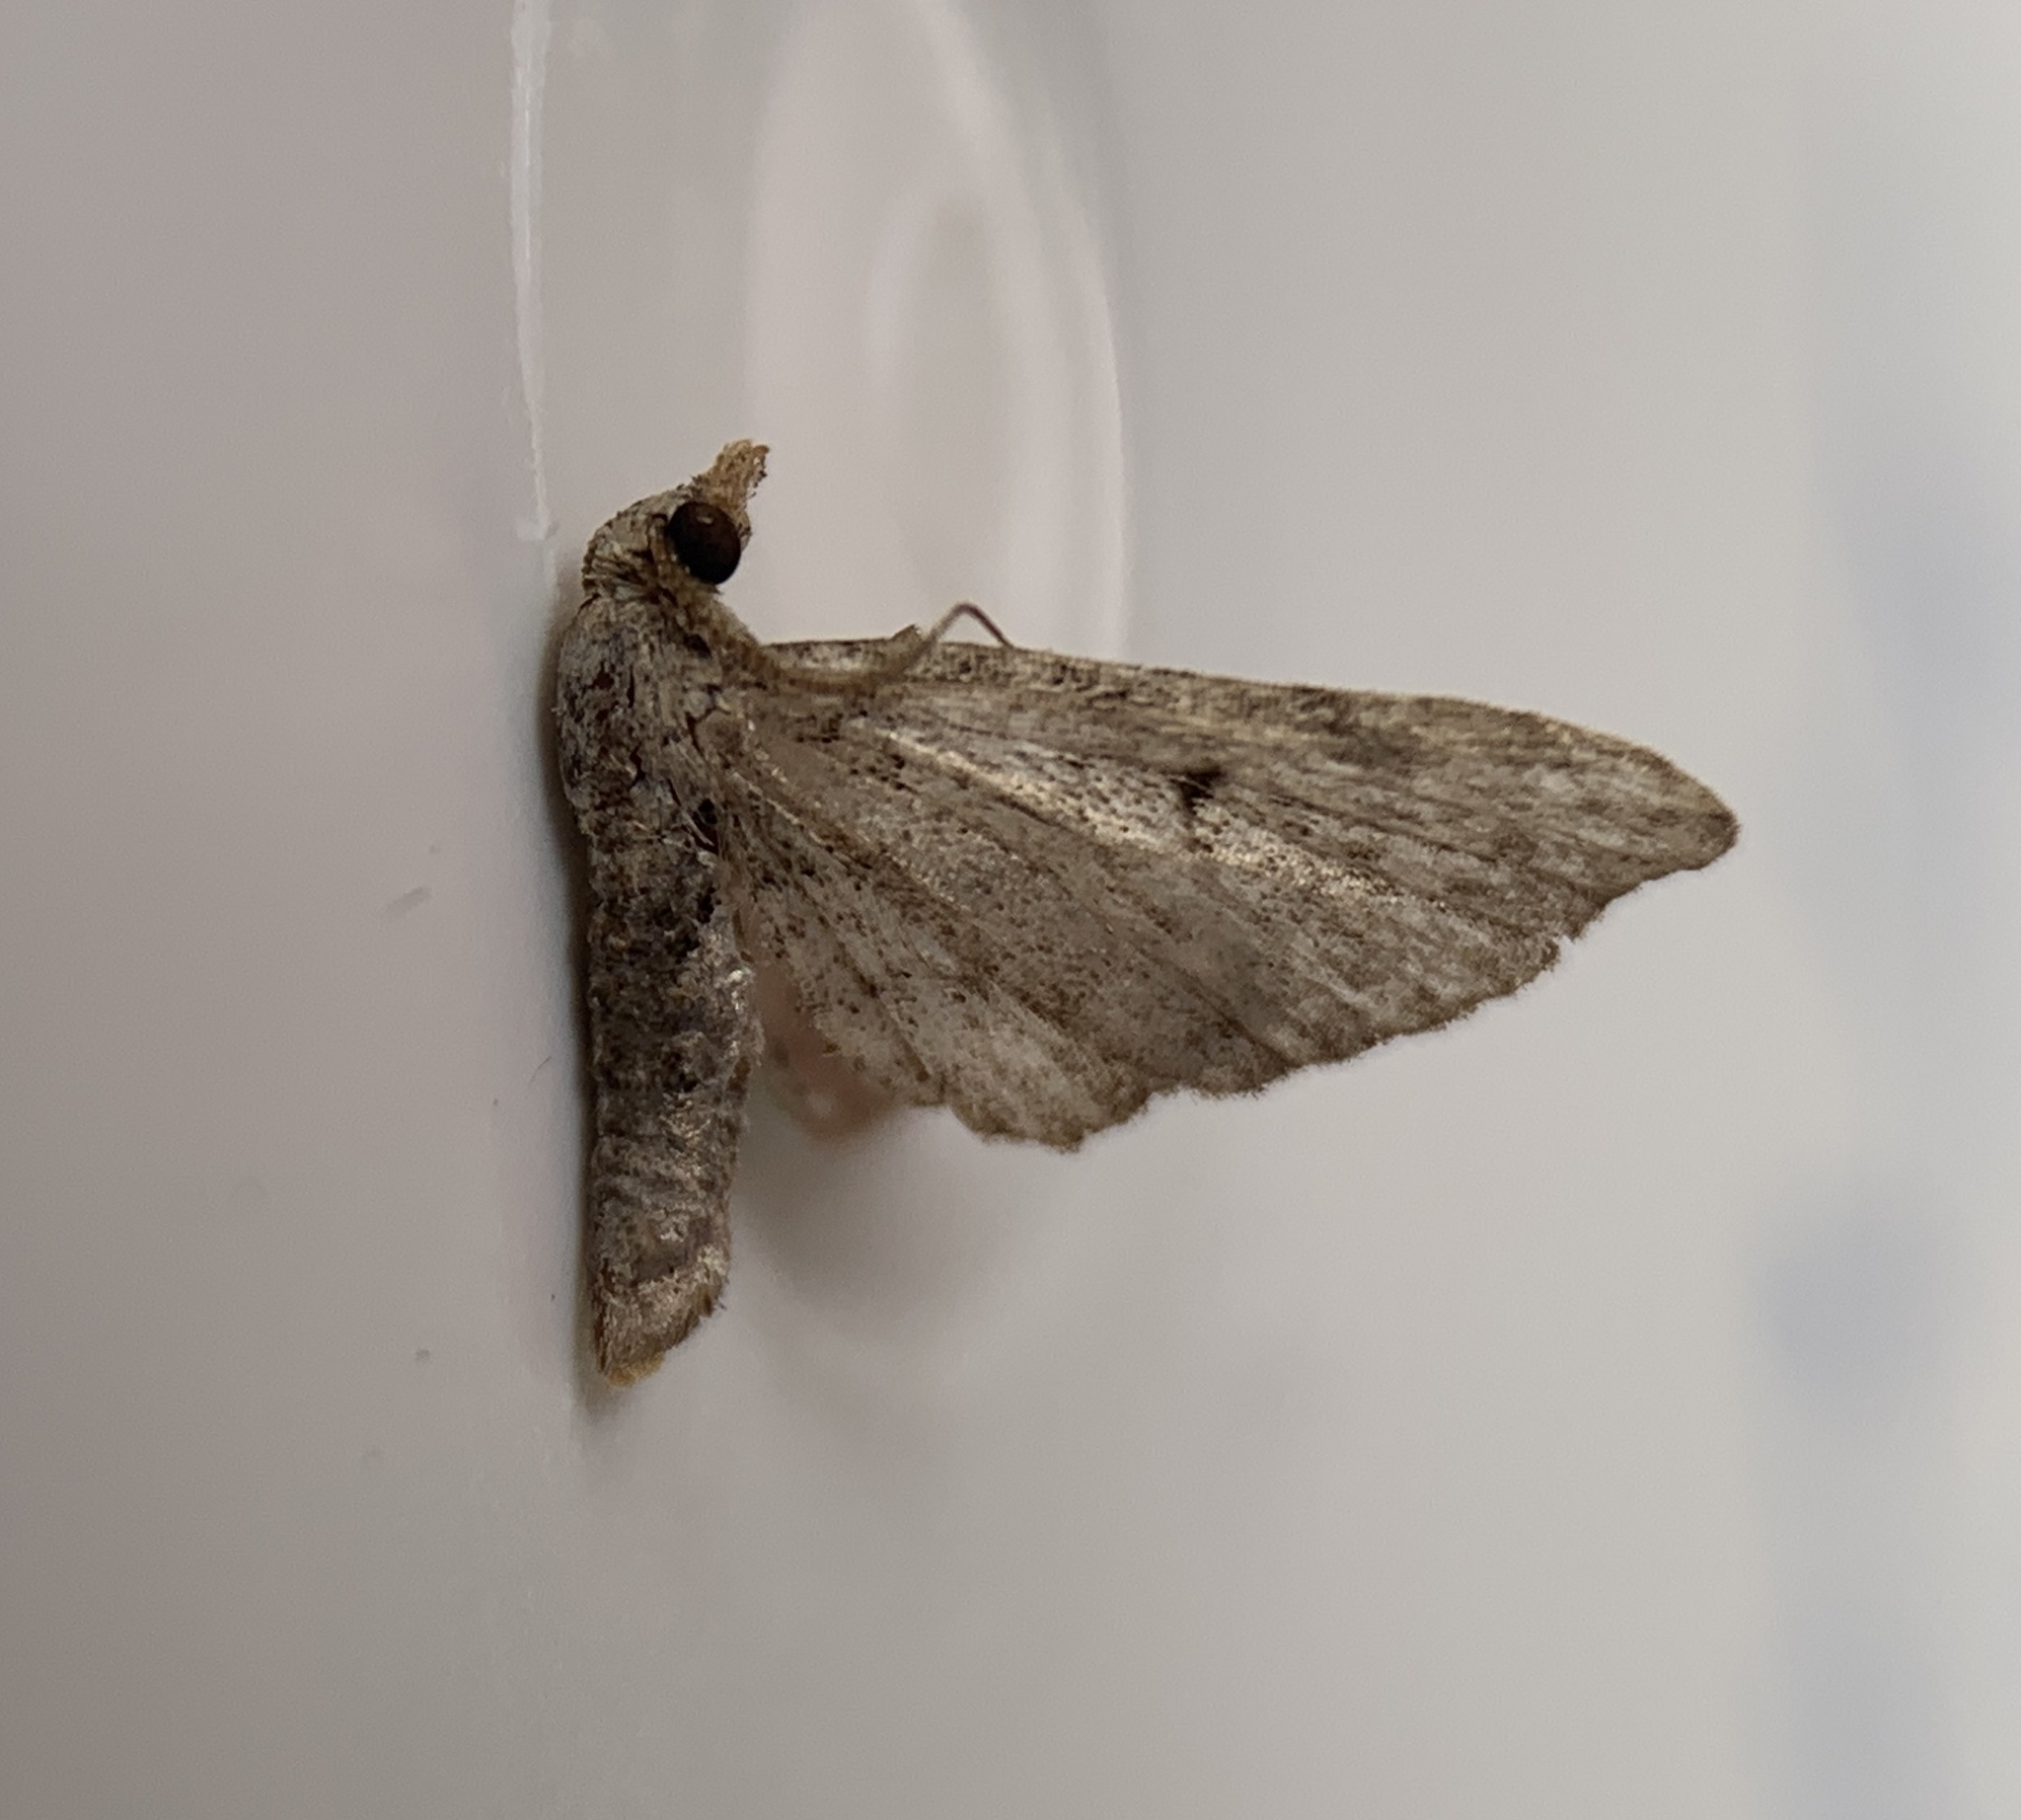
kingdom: Animalia
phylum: Arthropoda
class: Insecta
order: Lepidoptera
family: Geometridae
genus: Eupithecia
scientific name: Eupithecia miserulata
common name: Common eupithecia
